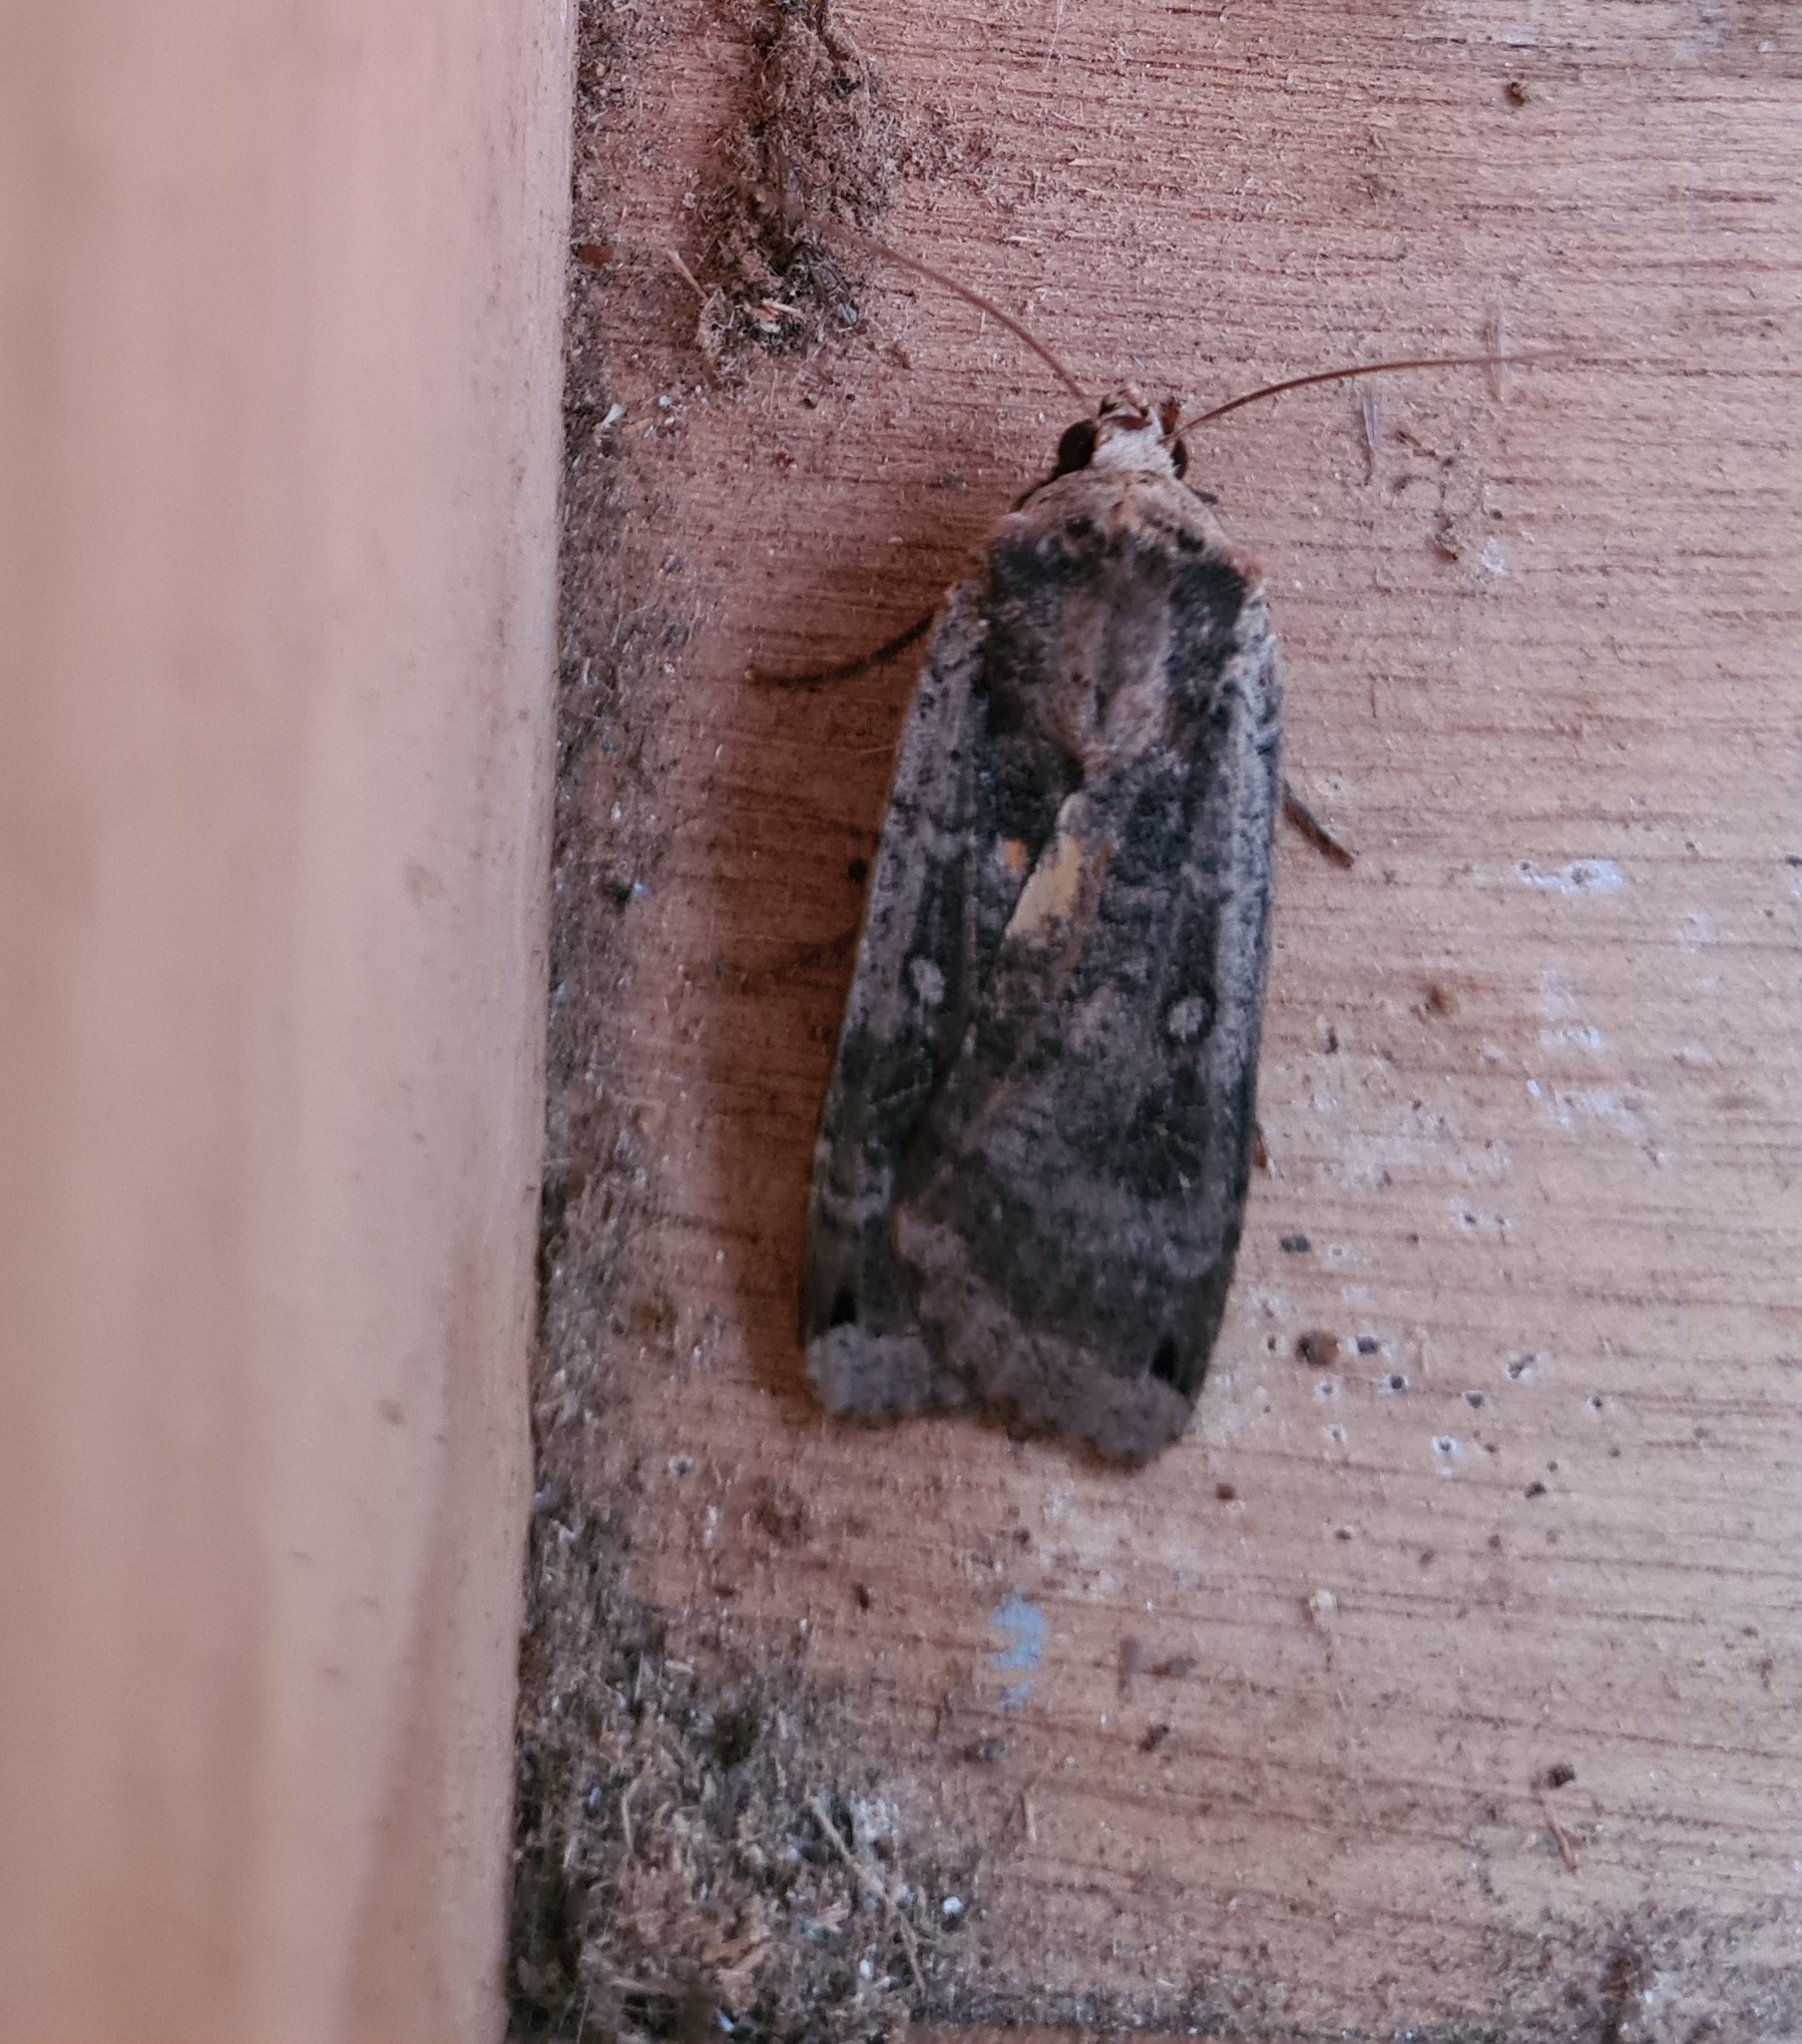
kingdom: Animalia
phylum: Arthropoda
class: Insecta
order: Lepidoptera
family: Noctuidae
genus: Noctua
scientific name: Noctua pronuba
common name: Large yellow underwing
